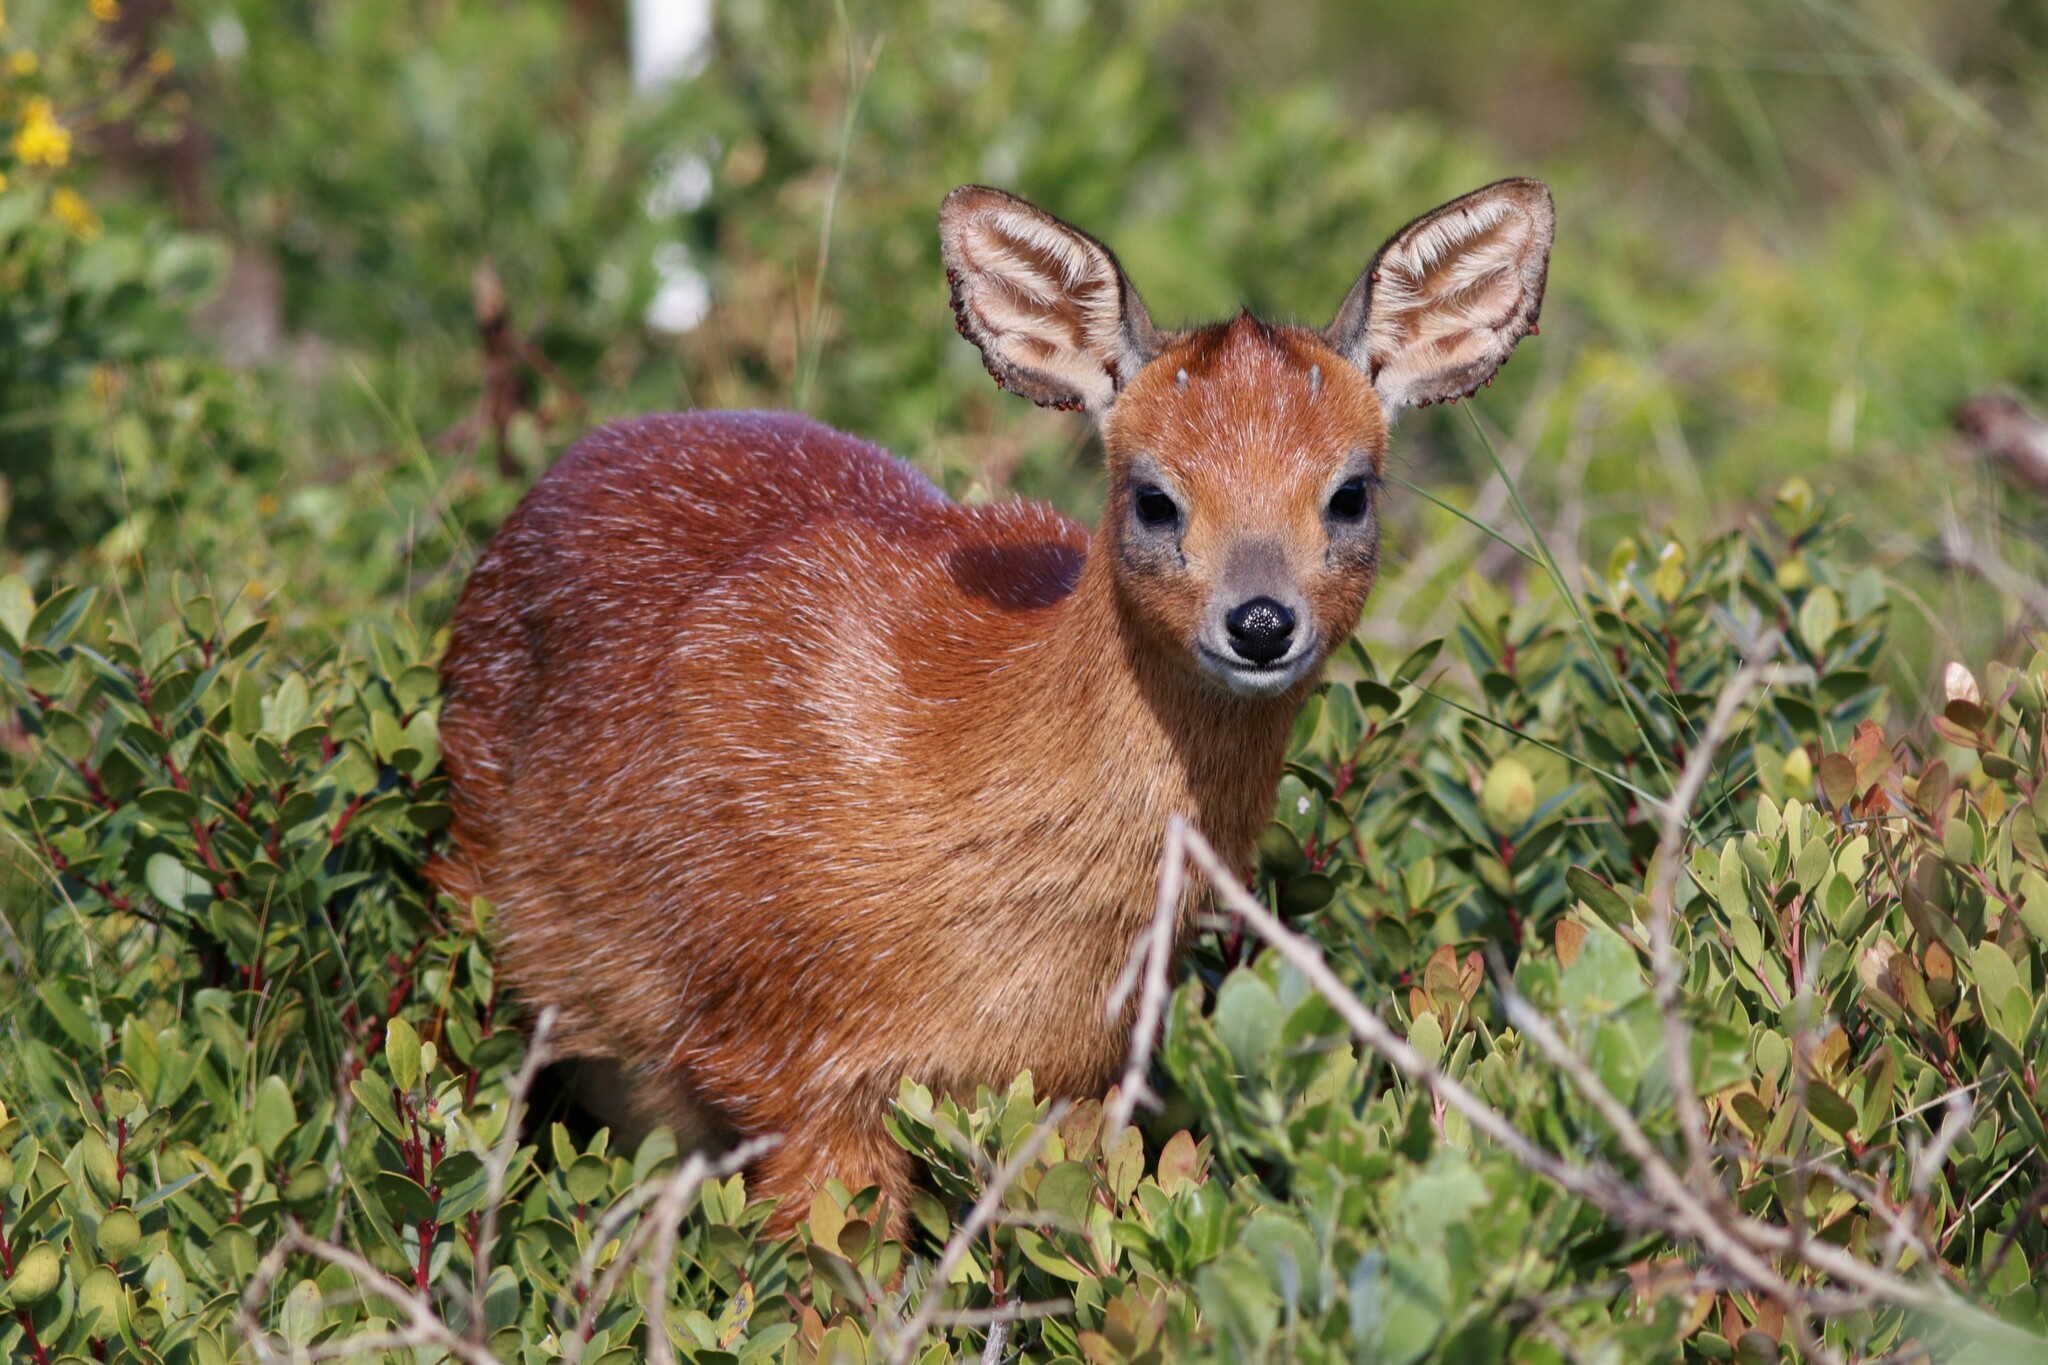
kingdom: Animalia
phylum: Chordata
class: Mammalia
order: Artiodactyla
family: Bovidae
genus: Raphicerus
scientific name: Raphicerus melanotis
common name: Cape grysbok
